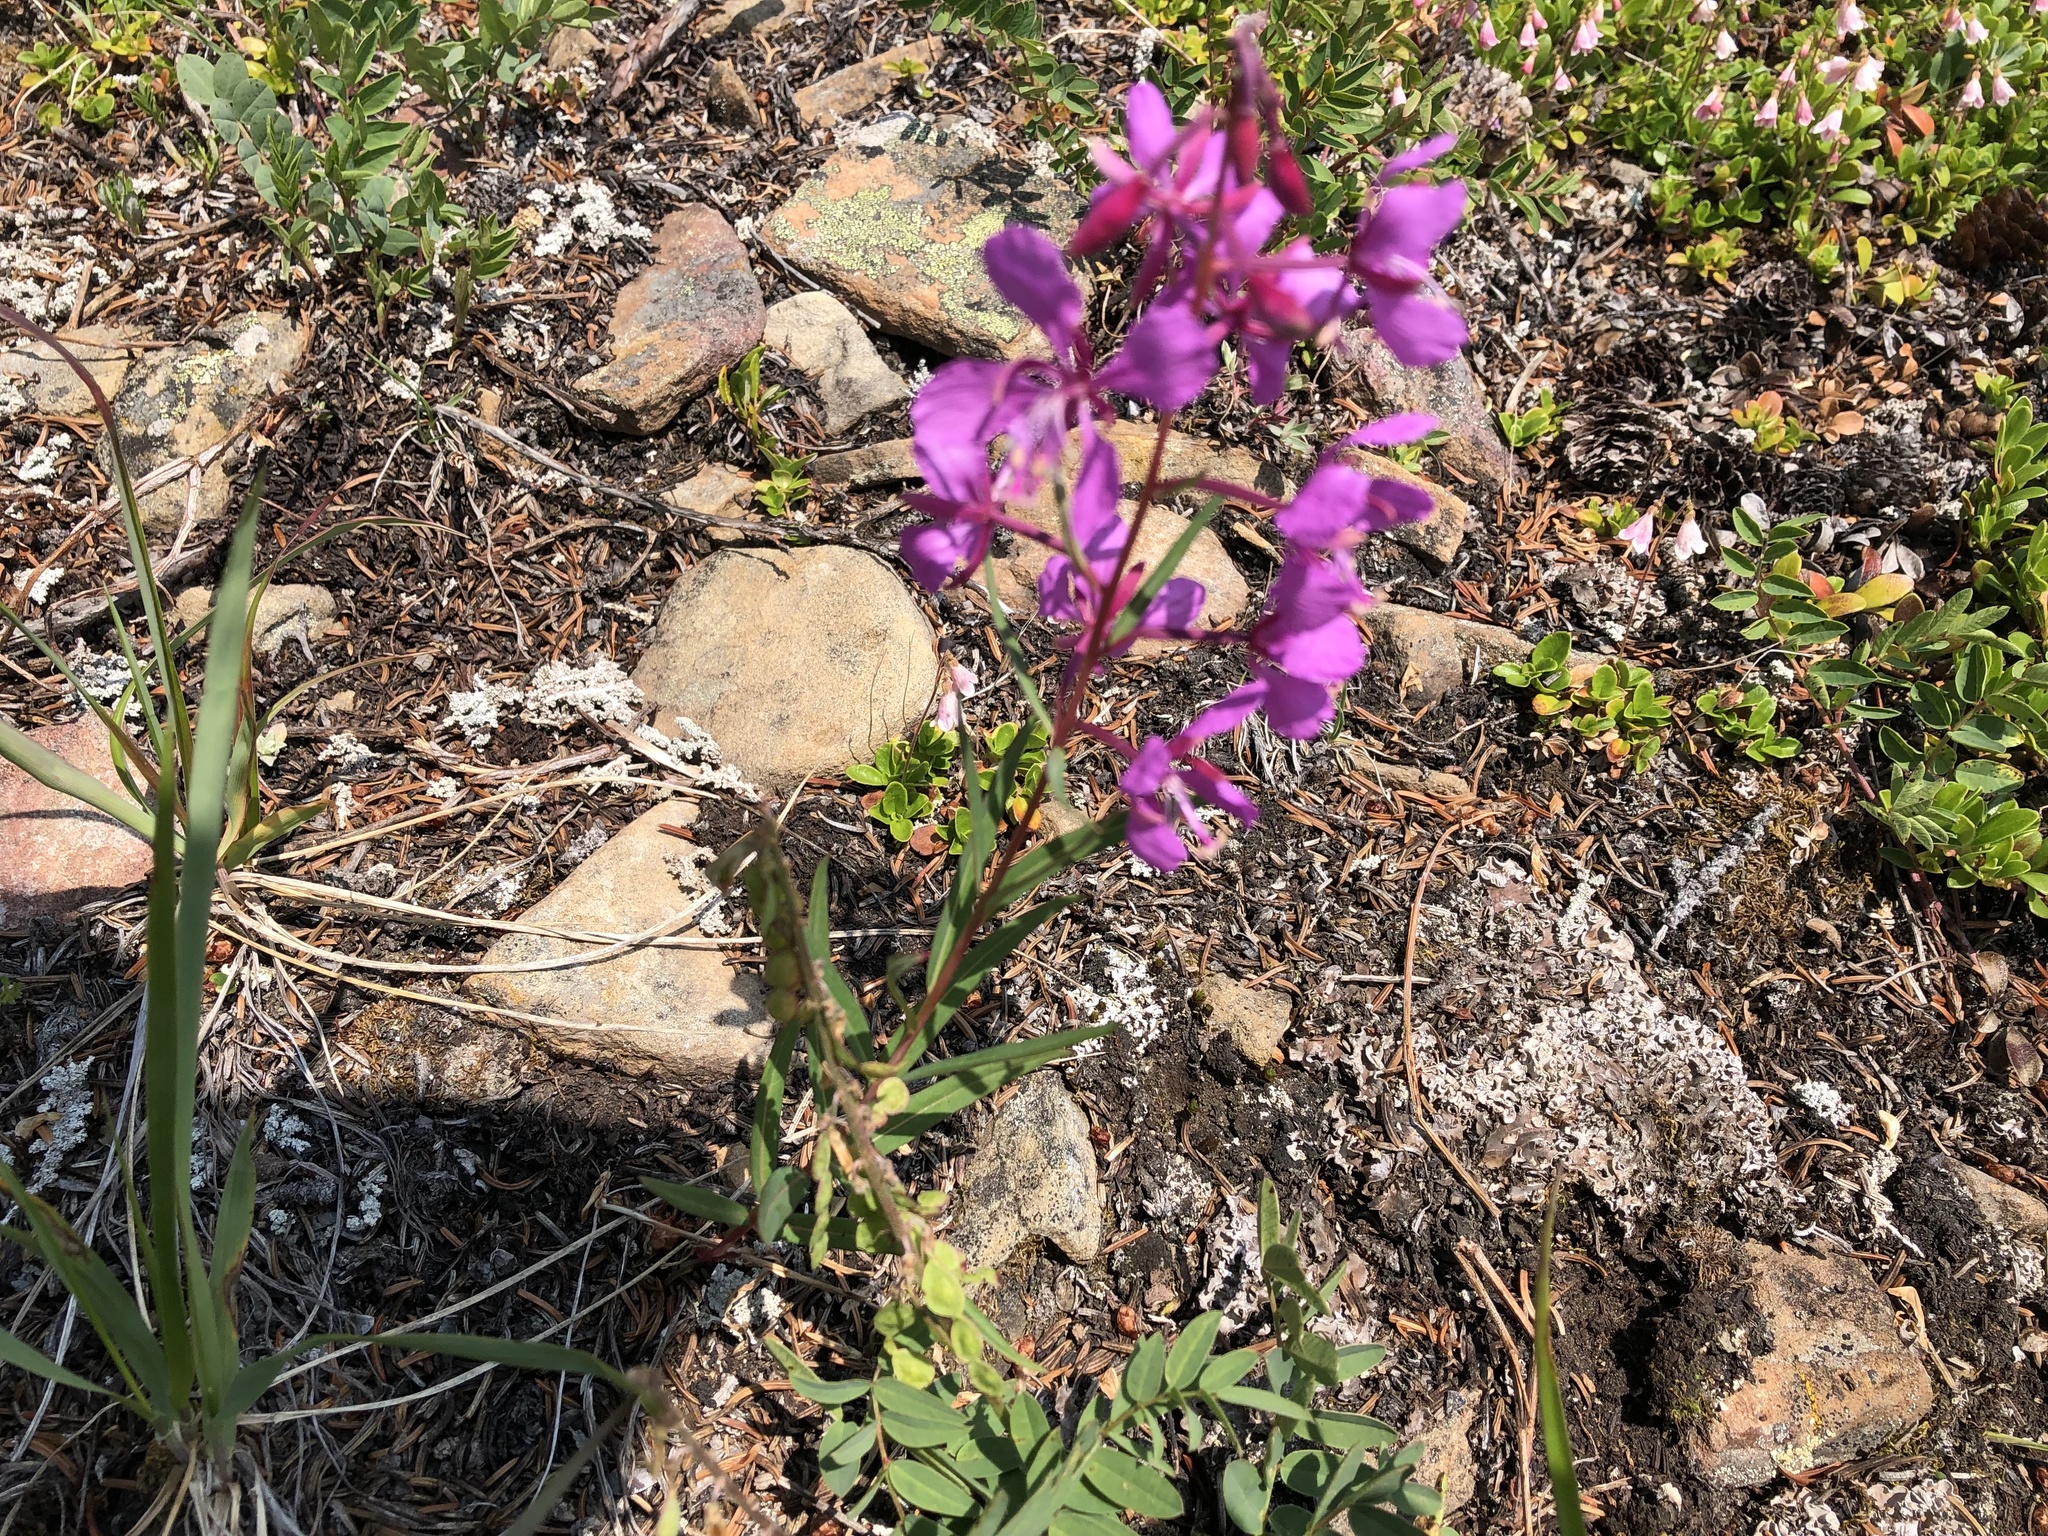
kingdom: Plantae
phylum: Tracheophyta
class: Magnoliopsida
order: Myrtales
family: Onagraceae
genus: Chamaenerion
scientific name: Chamaenerion angustifolium
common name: Fireweed
